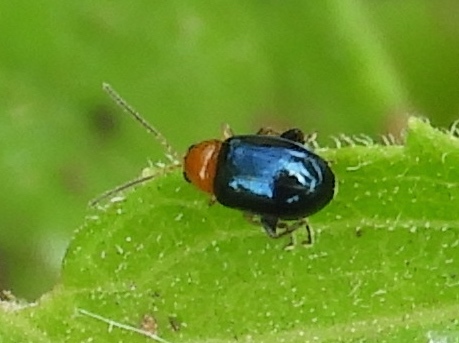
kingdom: Animalia
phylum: Arthropoda
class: Insecta
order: Coleoptera
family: Chrysomelidae
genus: Alticini
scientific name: Alticini
